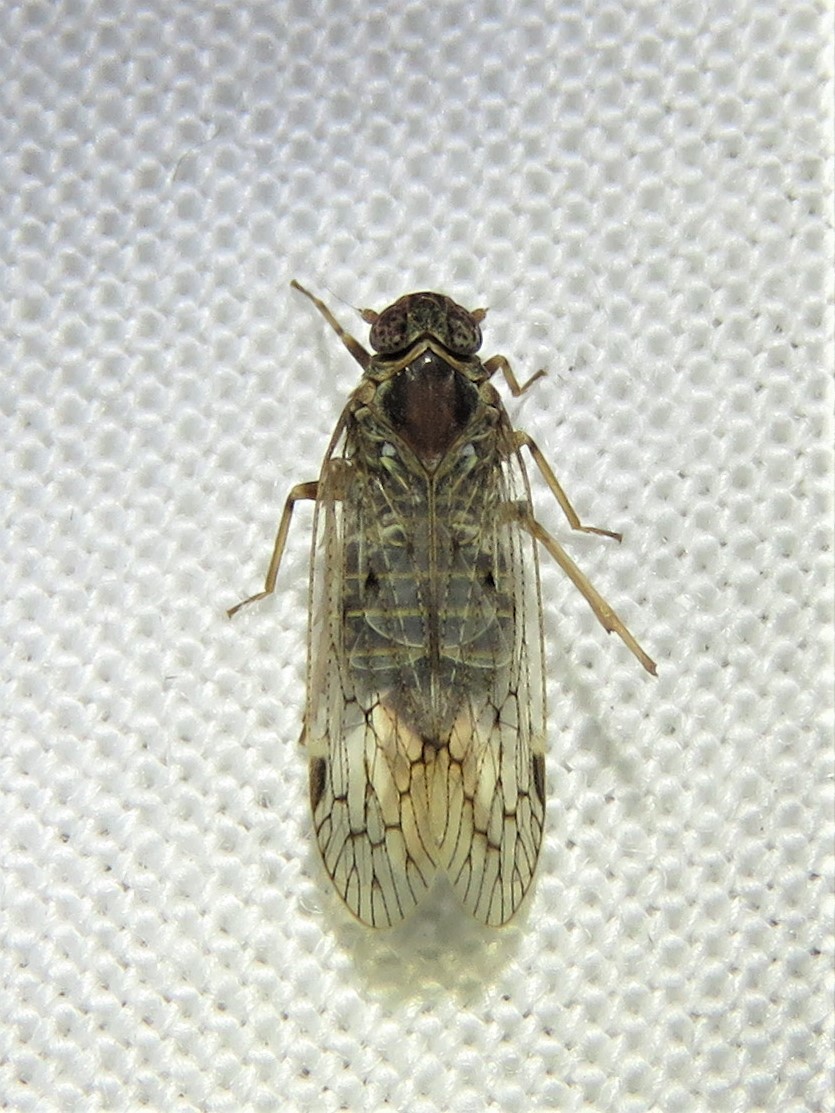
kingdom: Animalia
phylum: Arthropoda
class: Insecta
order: Hemiptera
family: Cixiidae
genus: Melanoliarus
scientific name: Melanoliarus aridus
